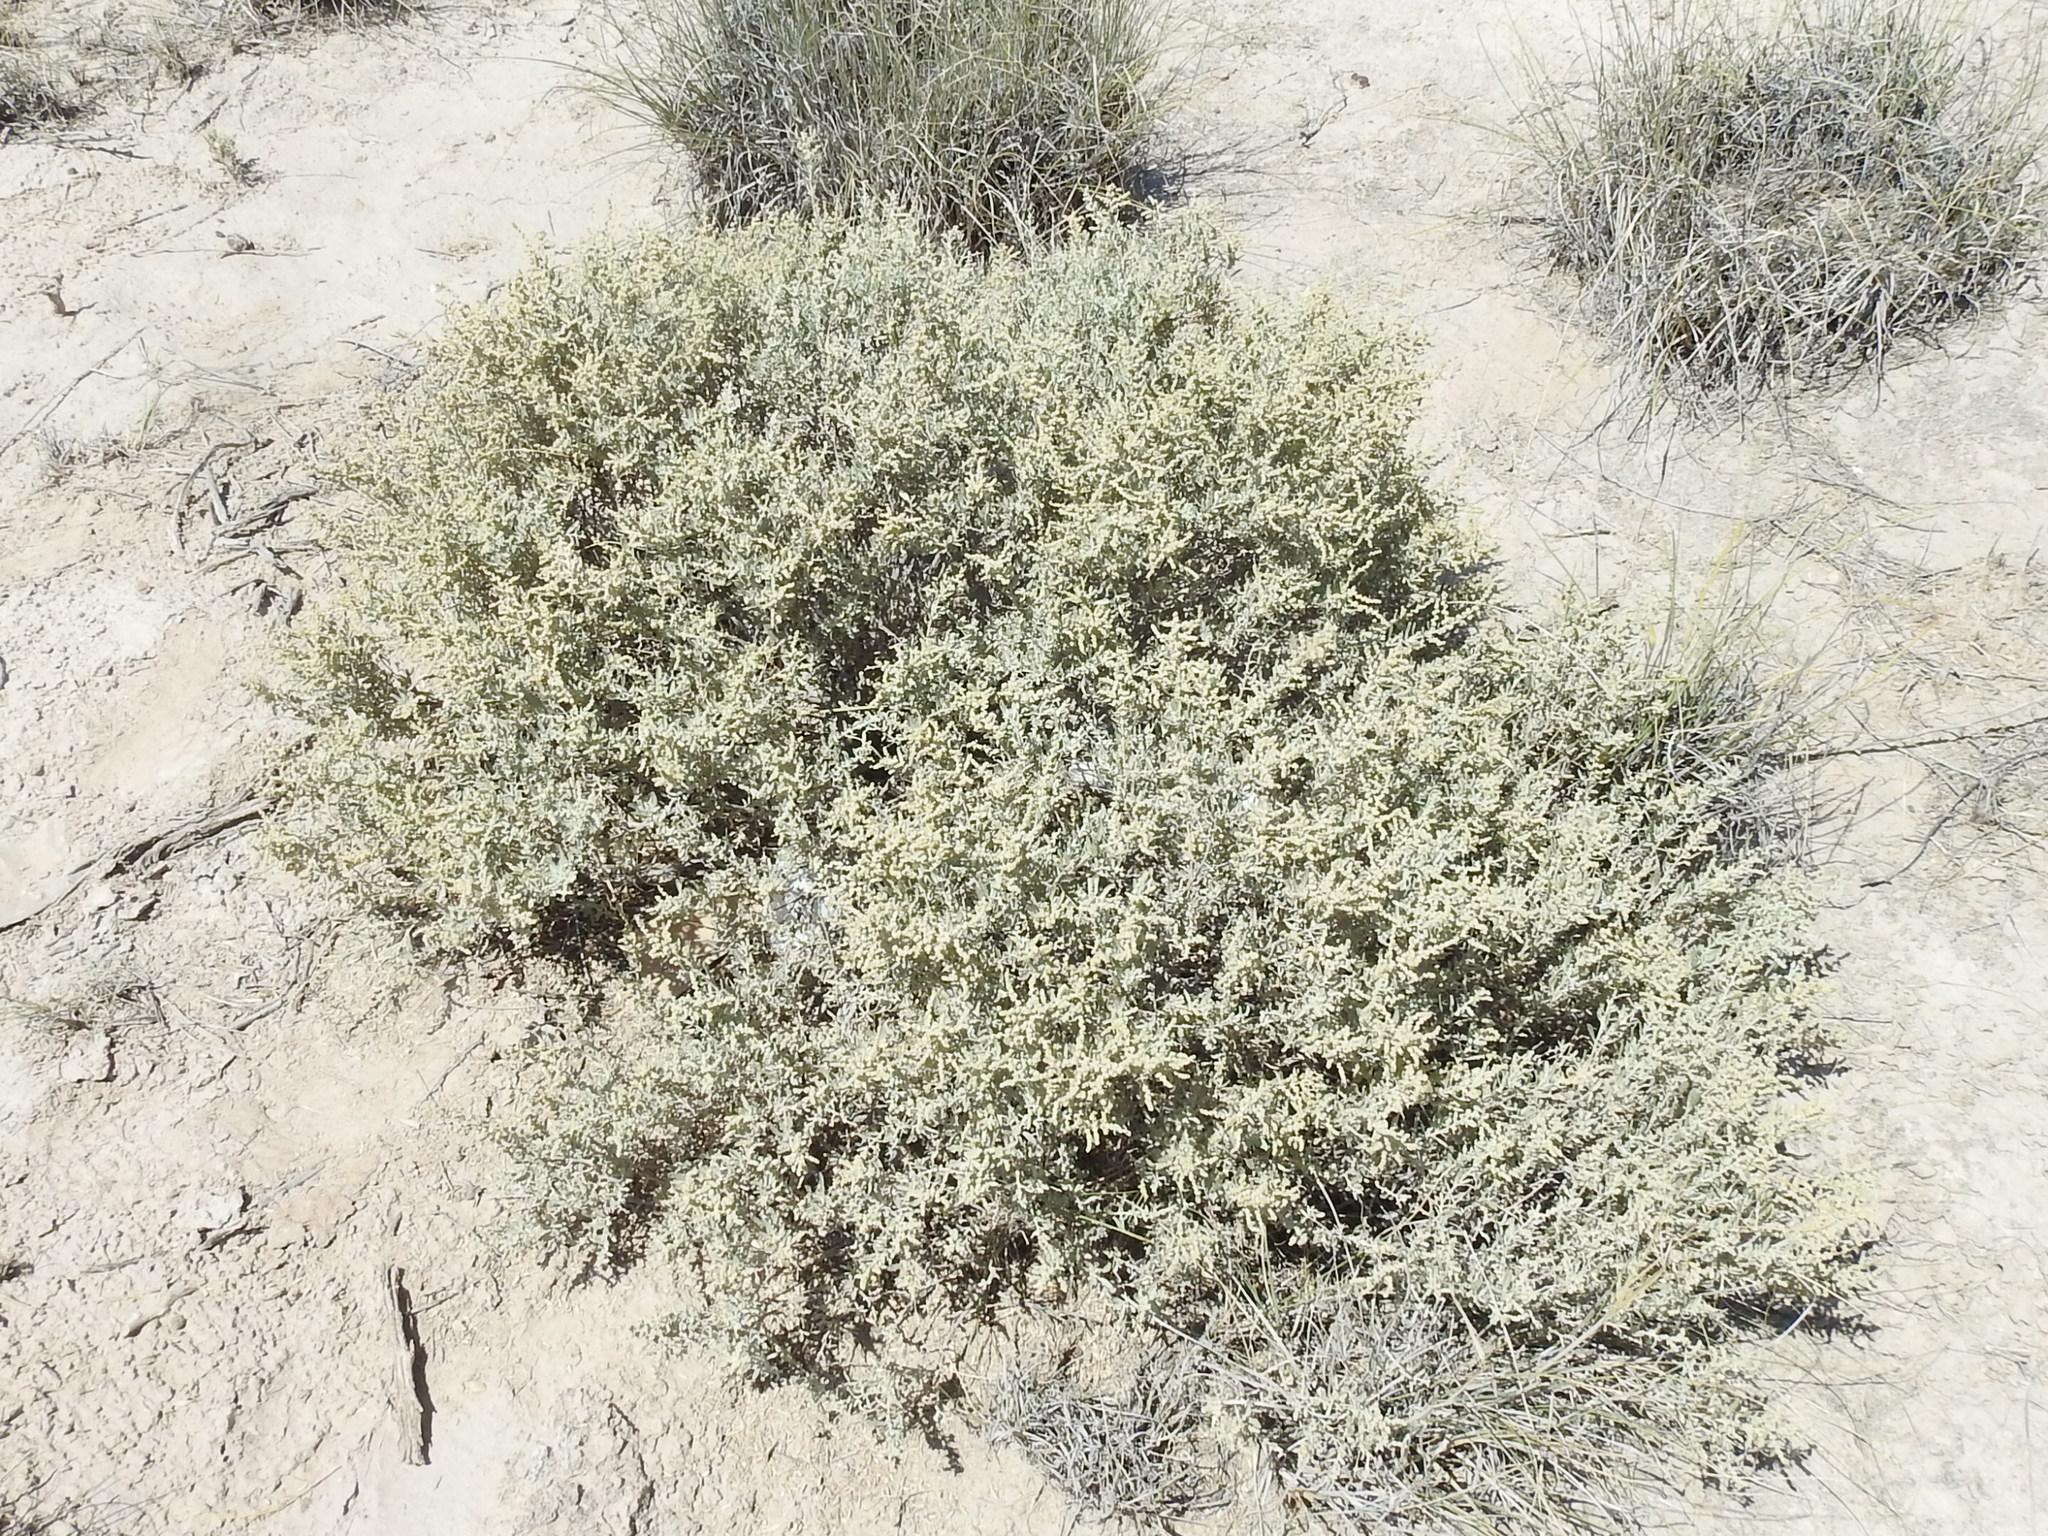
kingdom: Plantae
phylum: Tracheophyta
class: Magnoliopsida
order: Caryophyllales
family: Amaranthaceae
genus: Atriplex
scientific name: Atriplex canescens
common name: Four-wing saltbush
